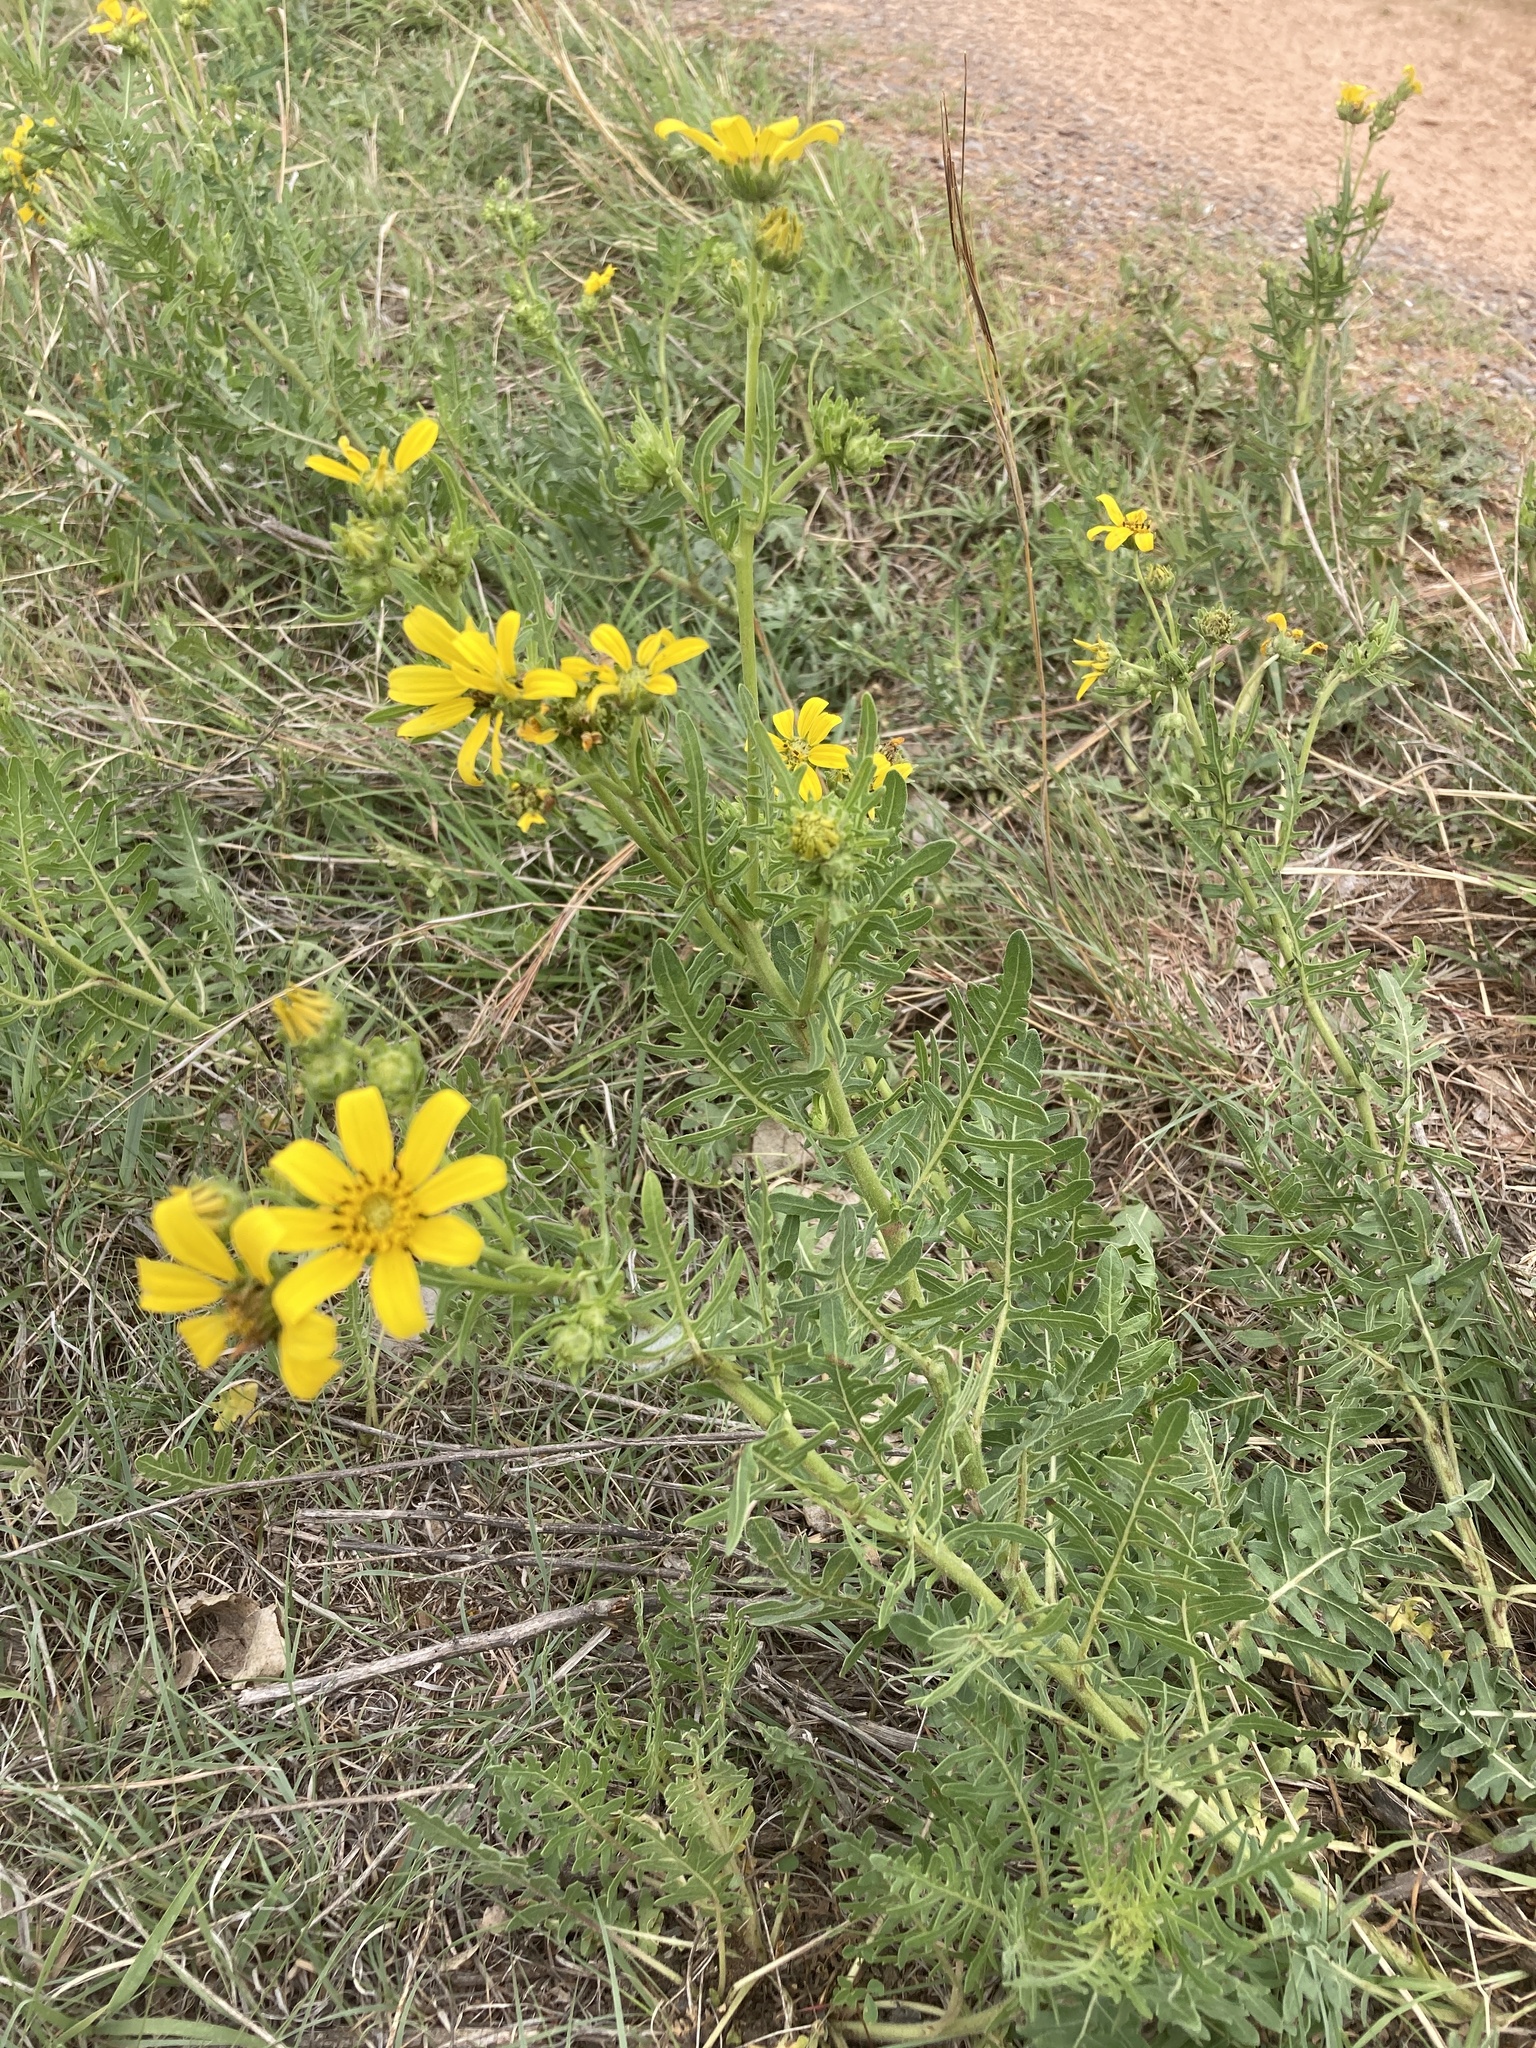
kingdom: Plantae
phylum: Tracheophyta
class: Magnoliopsida
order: Asterales
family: Asteraceae
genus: Engelmannia
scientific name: Engelmannia peristenia
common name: Engelmann's daisy
